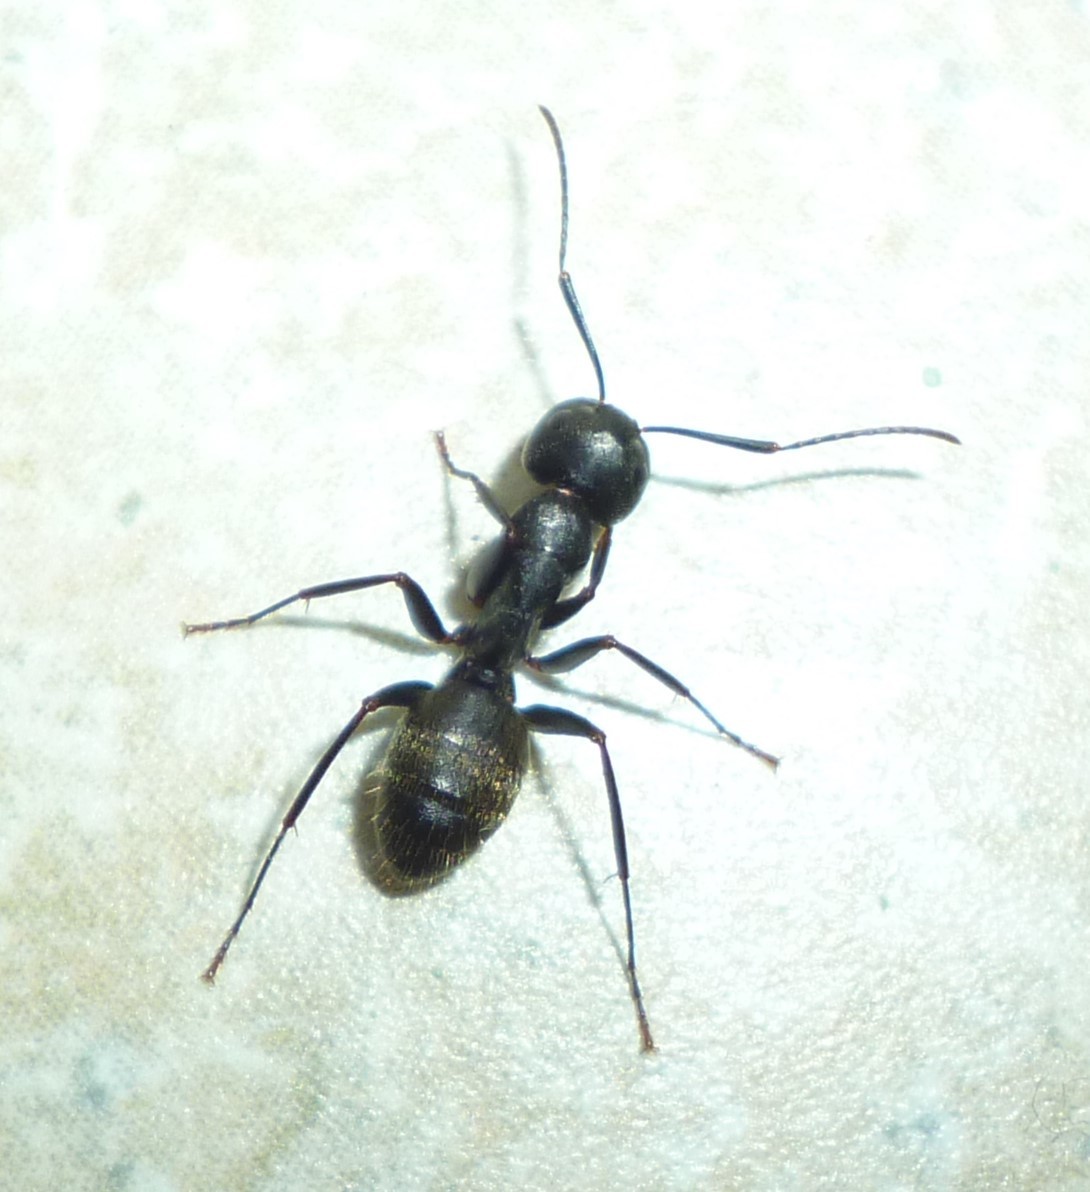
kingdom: Animalia
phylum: Arthropoda
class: Insecta
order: Hymenoptera
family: Formicidae
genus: Camponotus
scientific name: Camponotus pennsylvanicus
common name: Black carpenter ant
